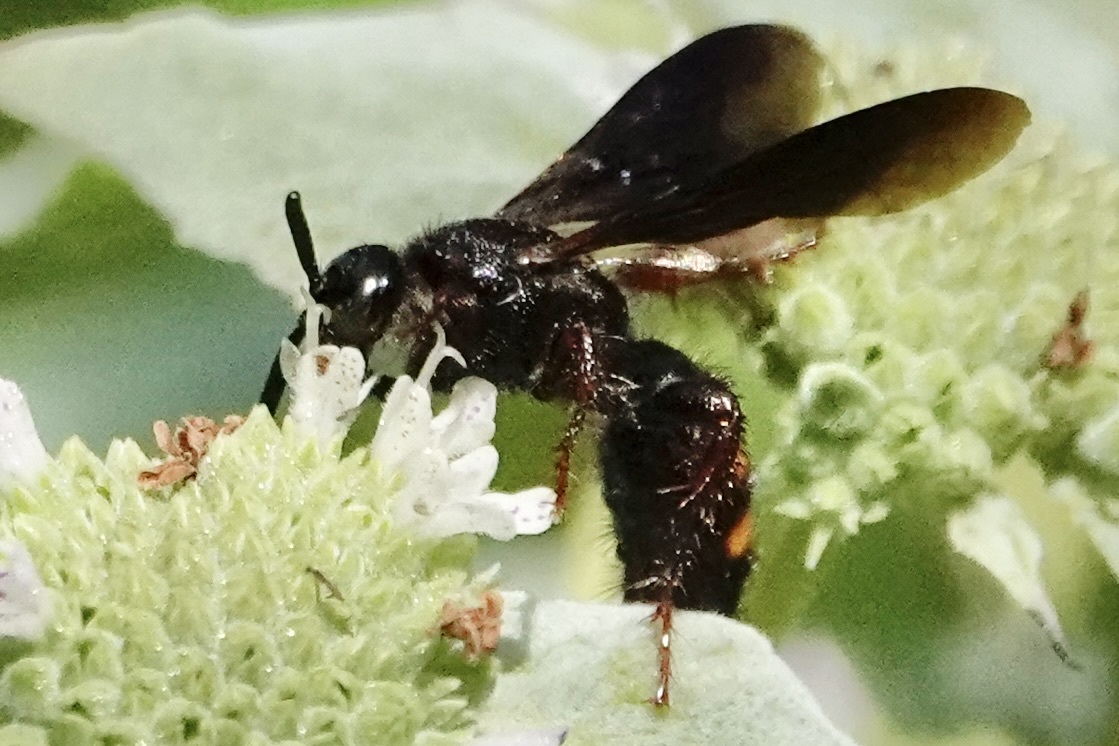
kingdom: Animalia
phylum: Arthropoda
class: Insecta
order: Hymenoptera
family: Scoliidae
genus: Scolia
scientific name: Scolia nobilitata
